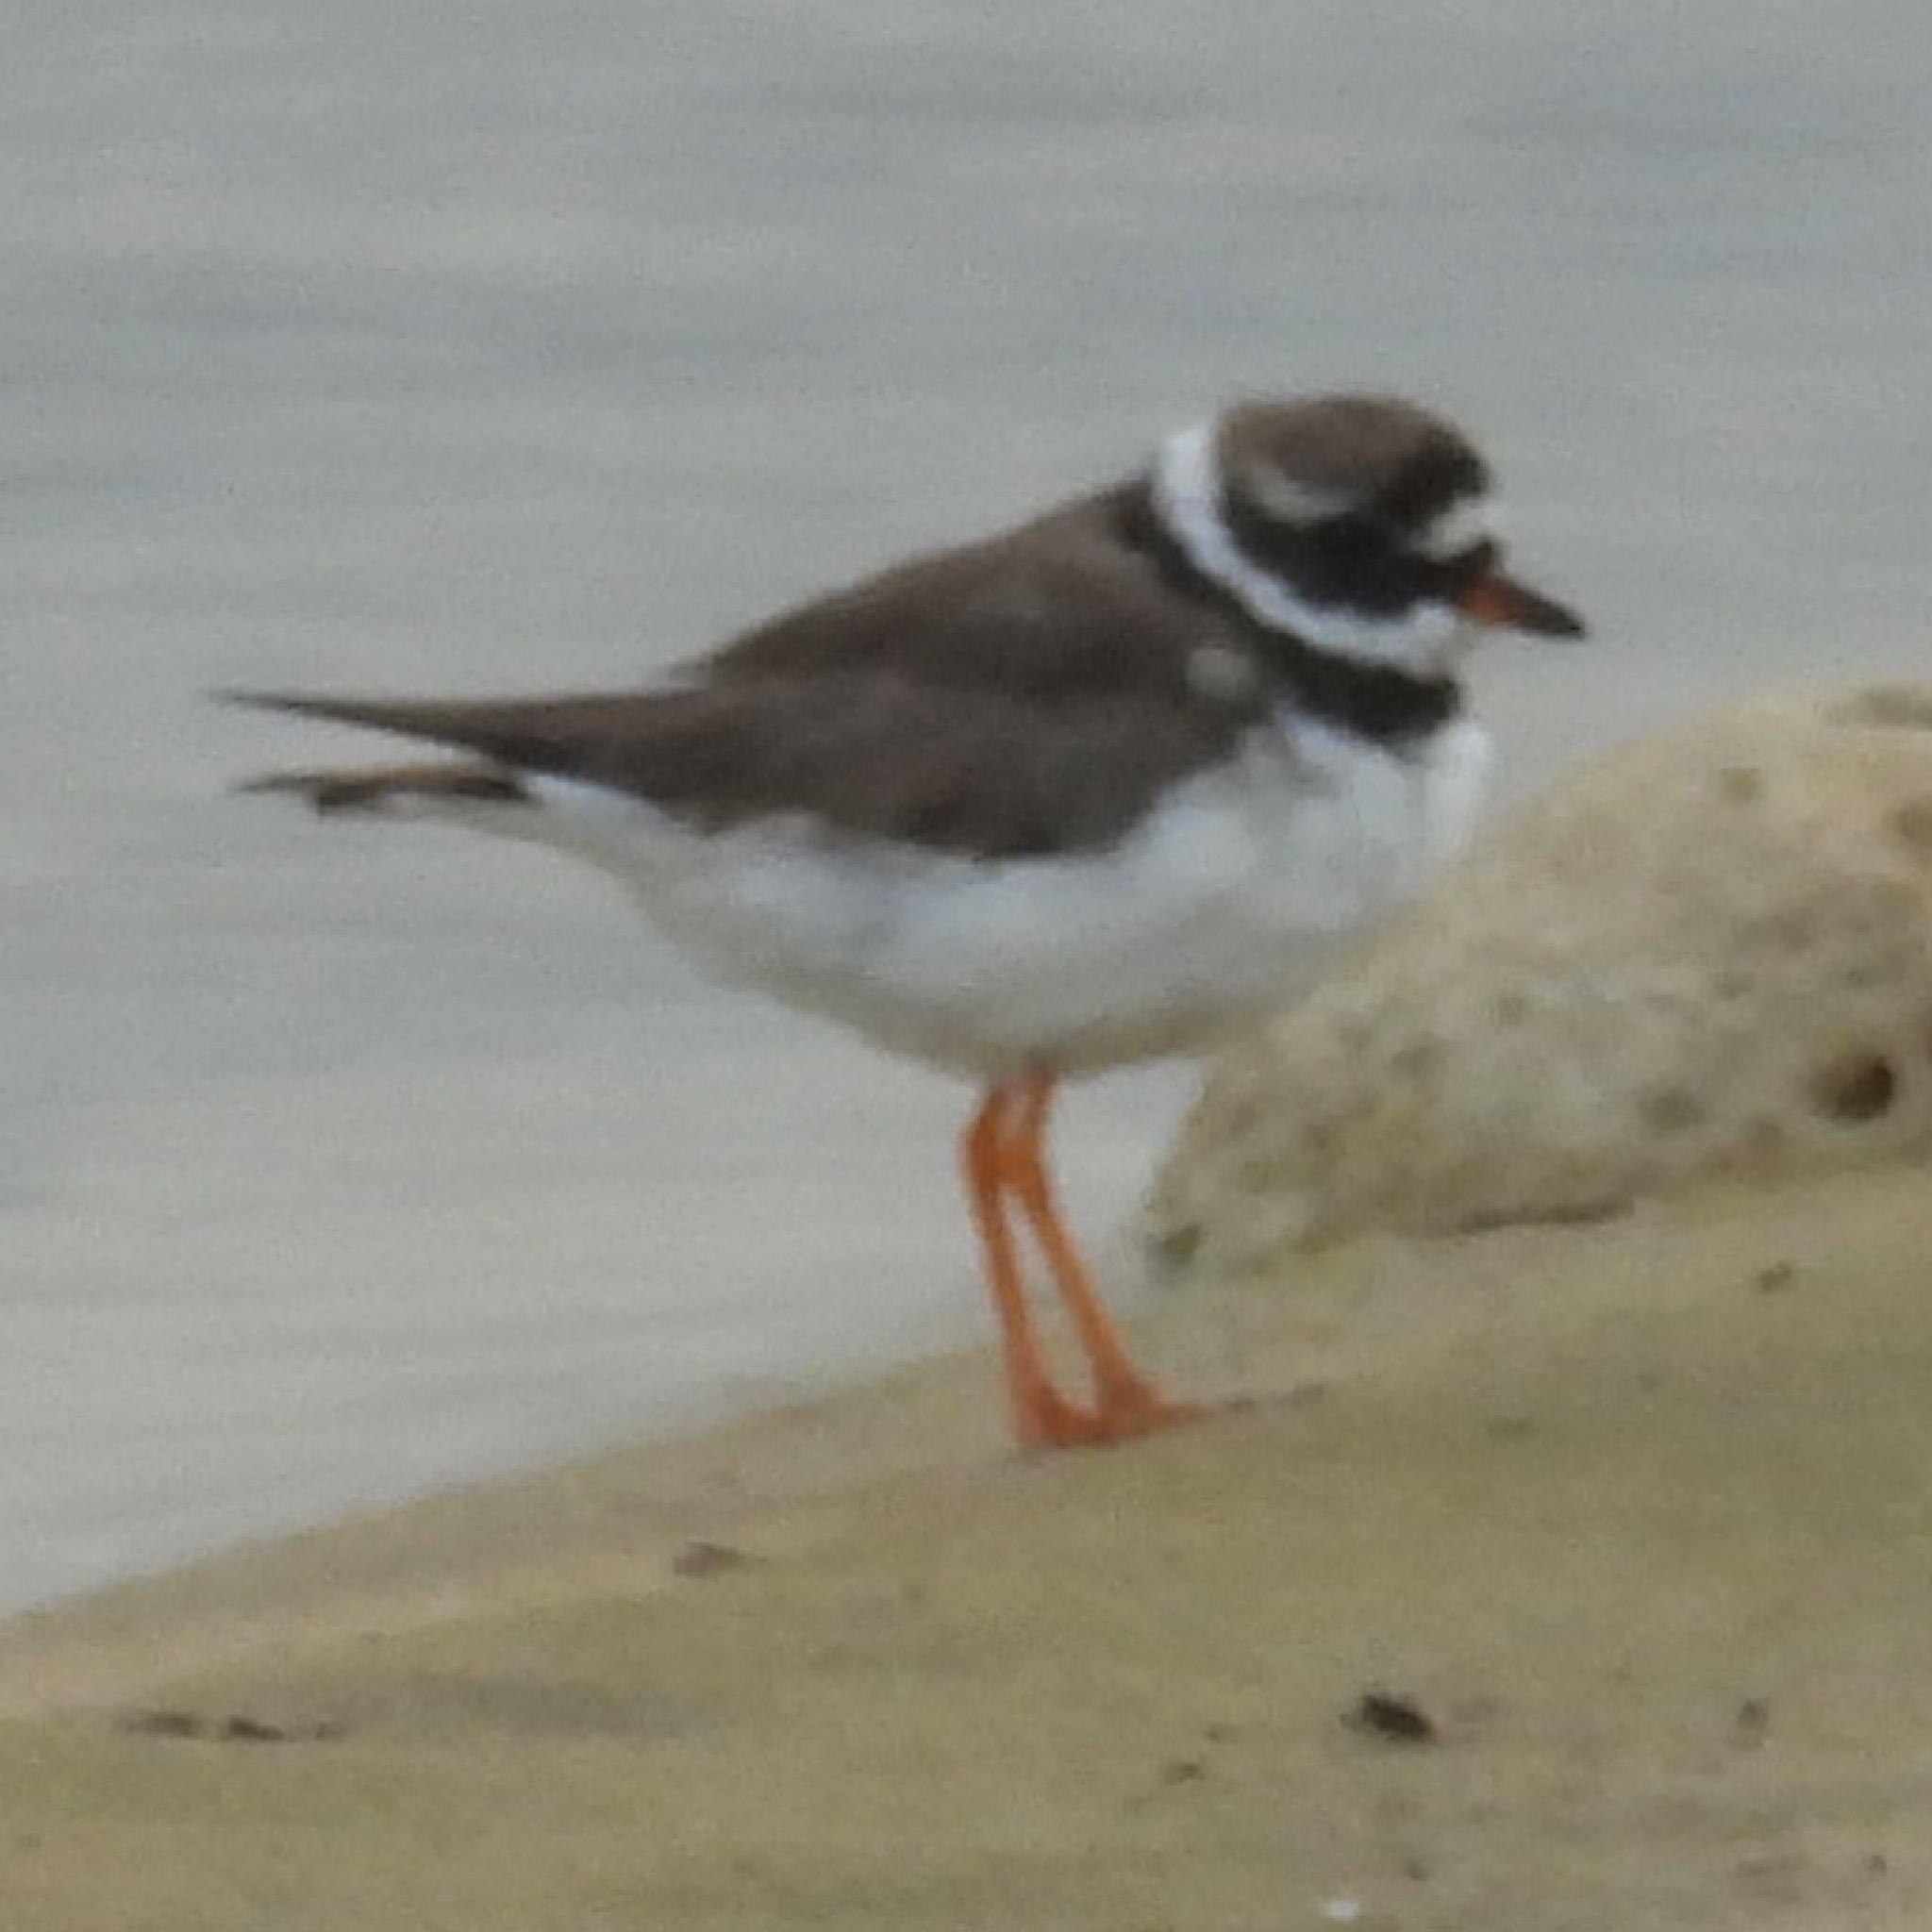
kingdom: Animalia
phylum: Chordata
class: Aves
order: Charadriiformes
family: Charadriidae
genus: Charadrius
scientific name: Charadrius hiaticula
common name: Common ringed plover
